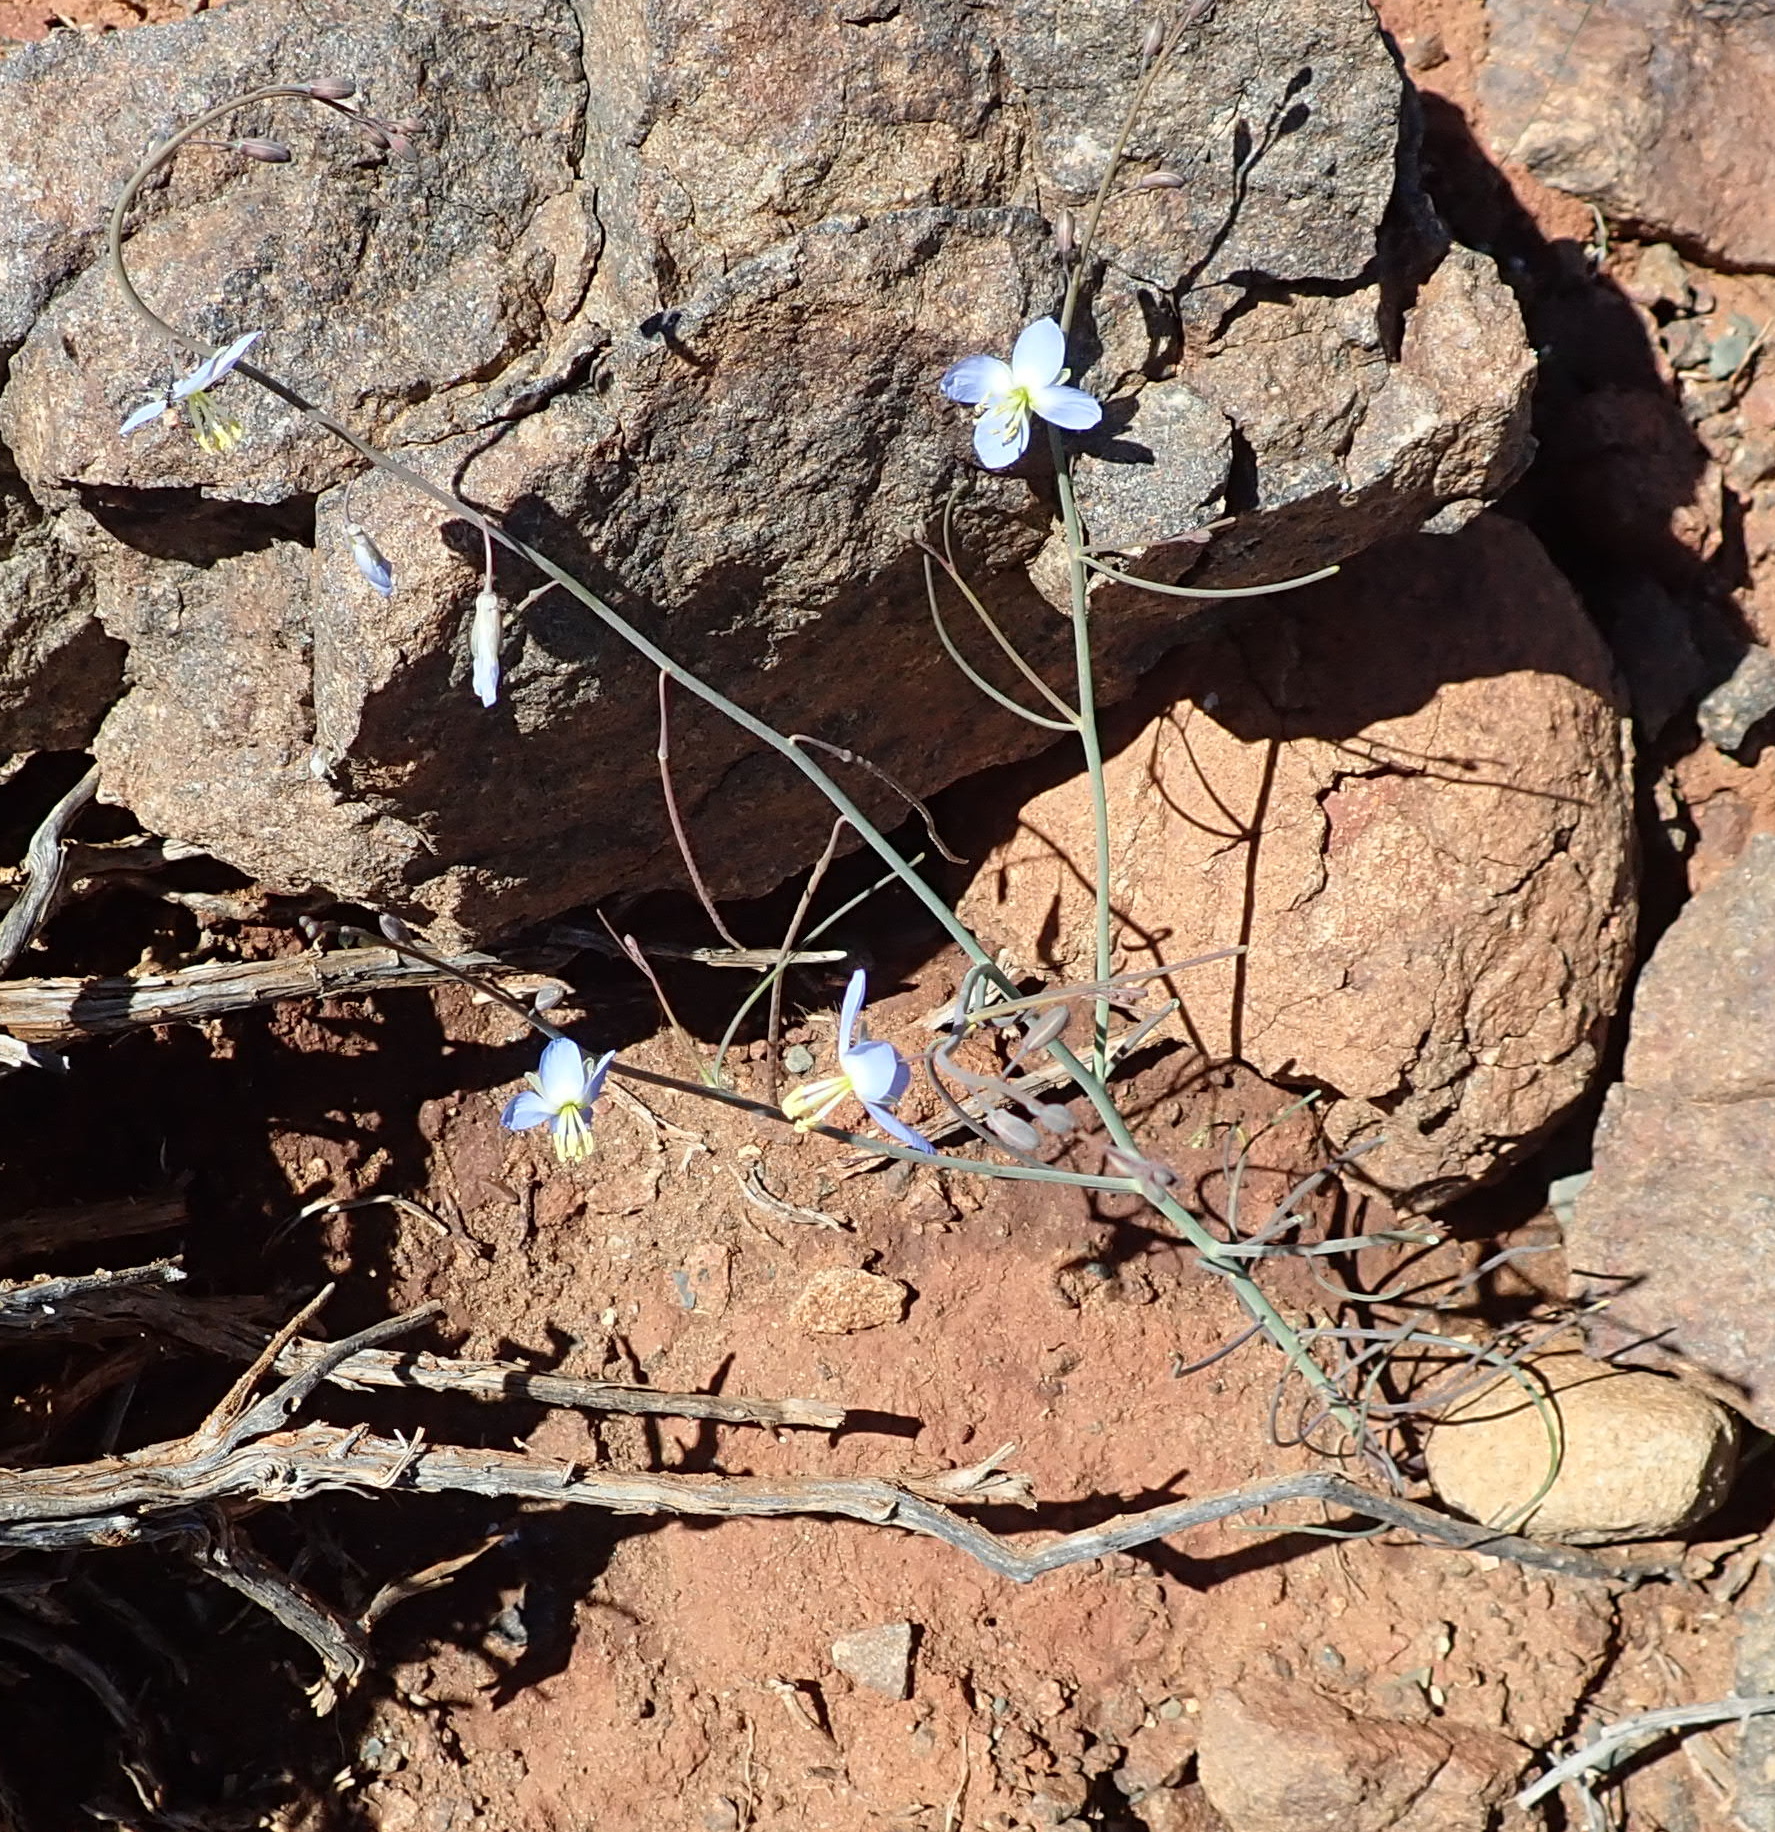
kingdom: Plantae
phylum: Tracheophyta
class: Magnoliopsida
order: Brassicales
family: Brassicaceae
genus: Heliophila
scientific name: Heliophila lactea
